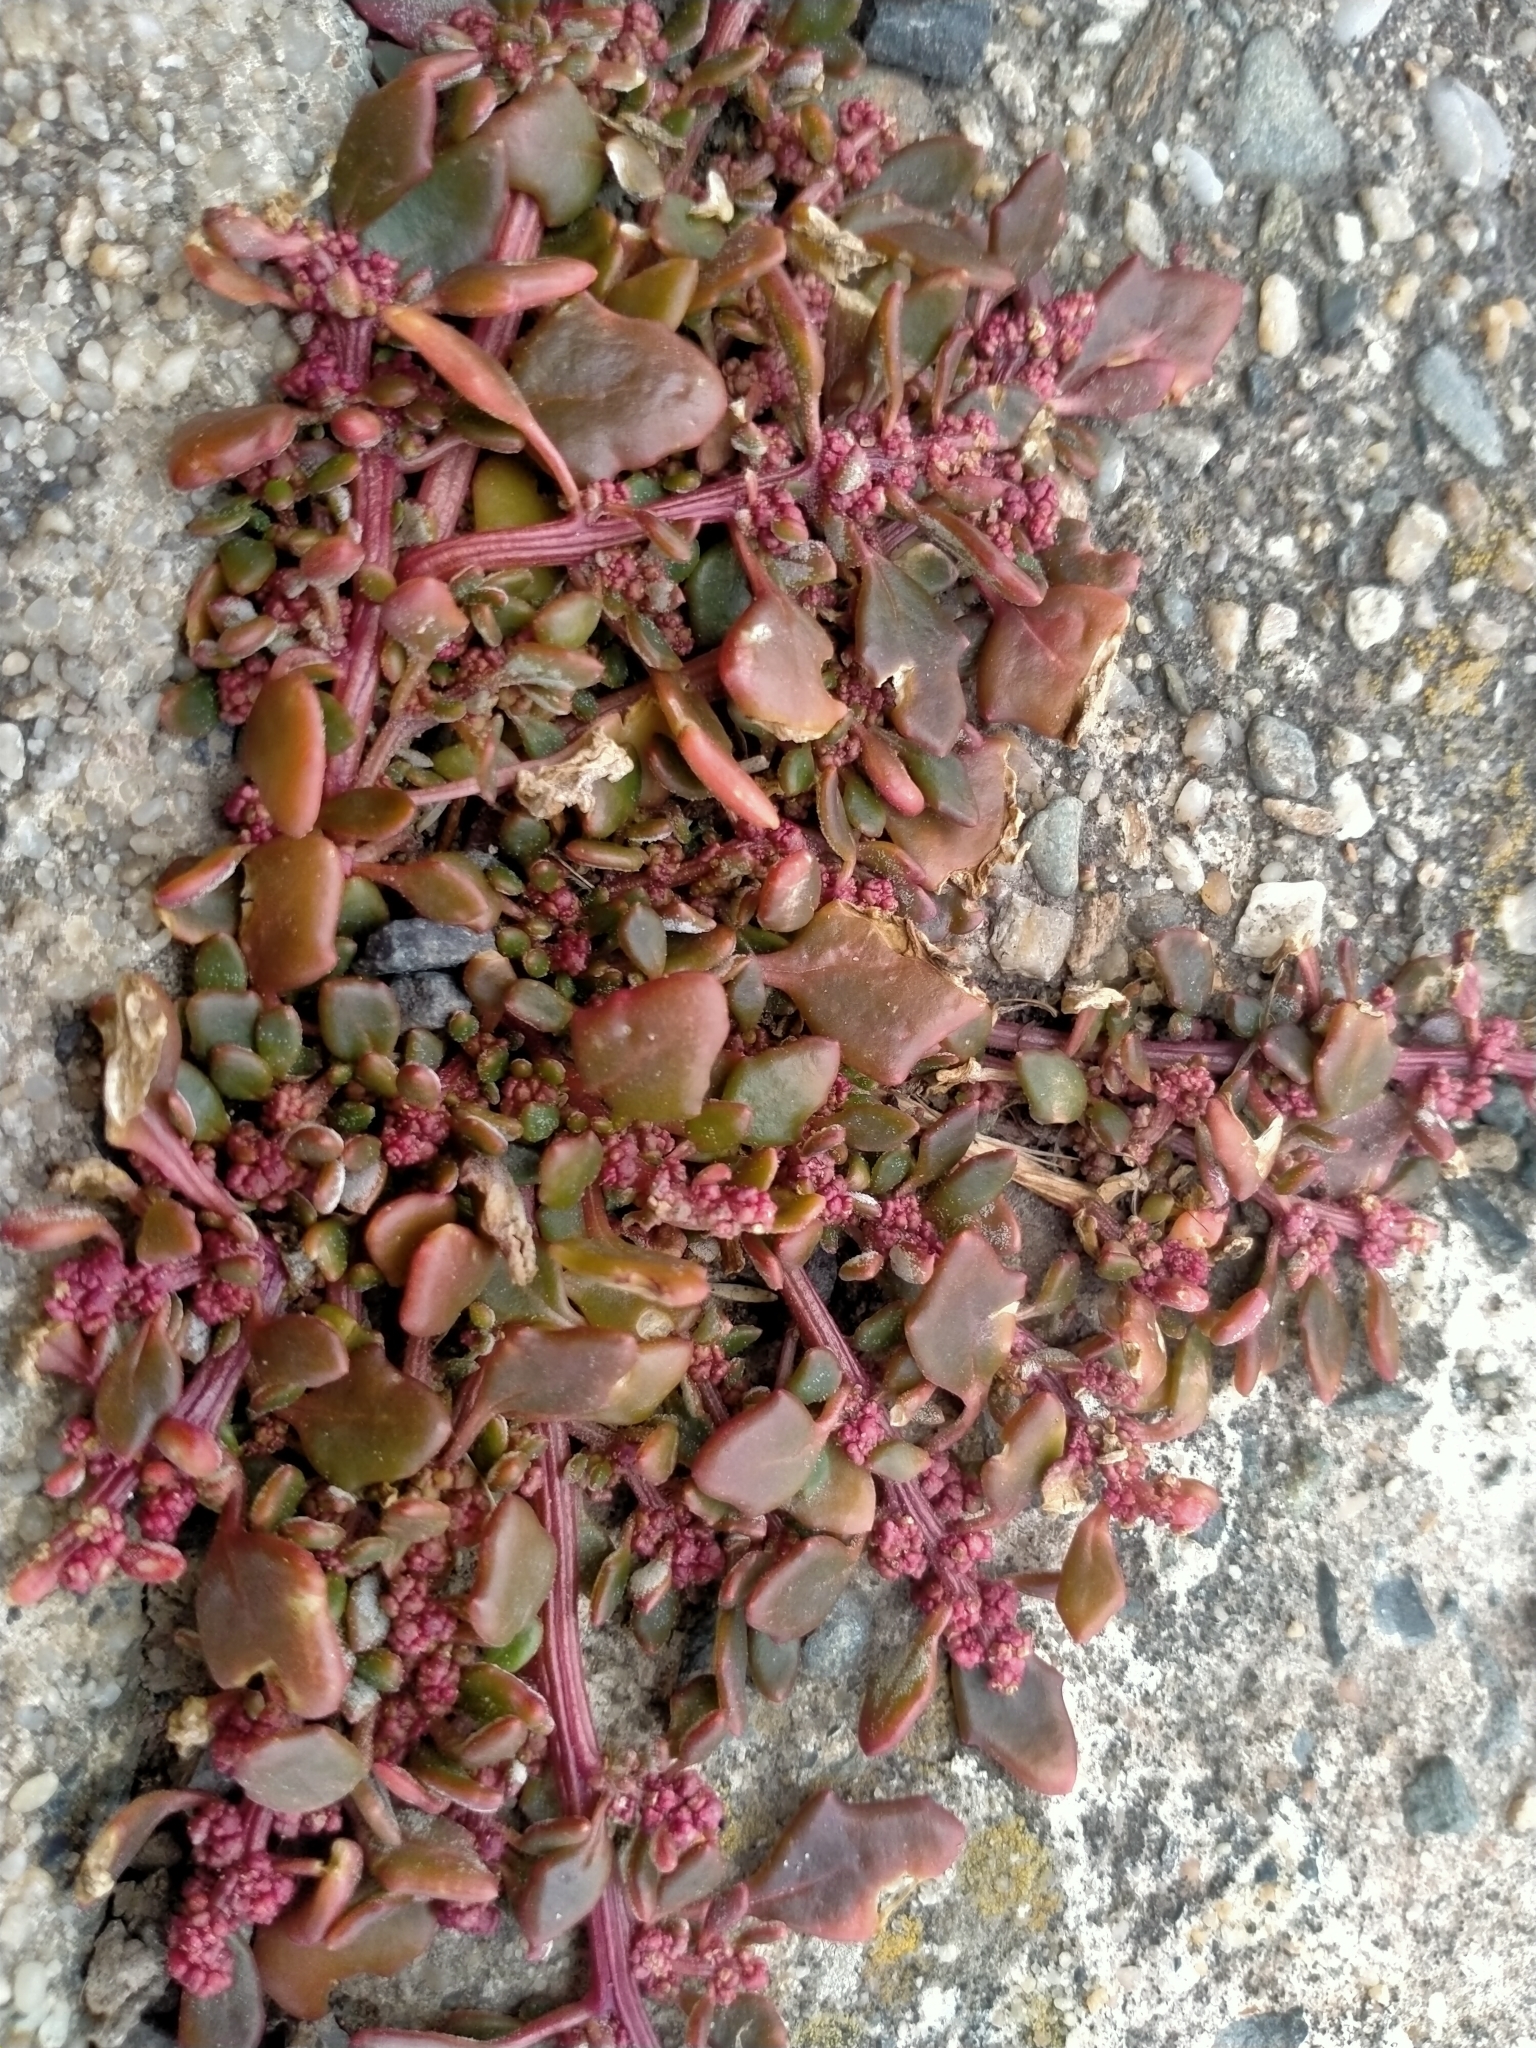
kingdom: Plantae
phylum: Tracheophyta
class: Magnoliopsida
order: Caryophyllales
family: Amaranthaceae
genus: Oxybasis
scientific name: Oxybasis ambigua
